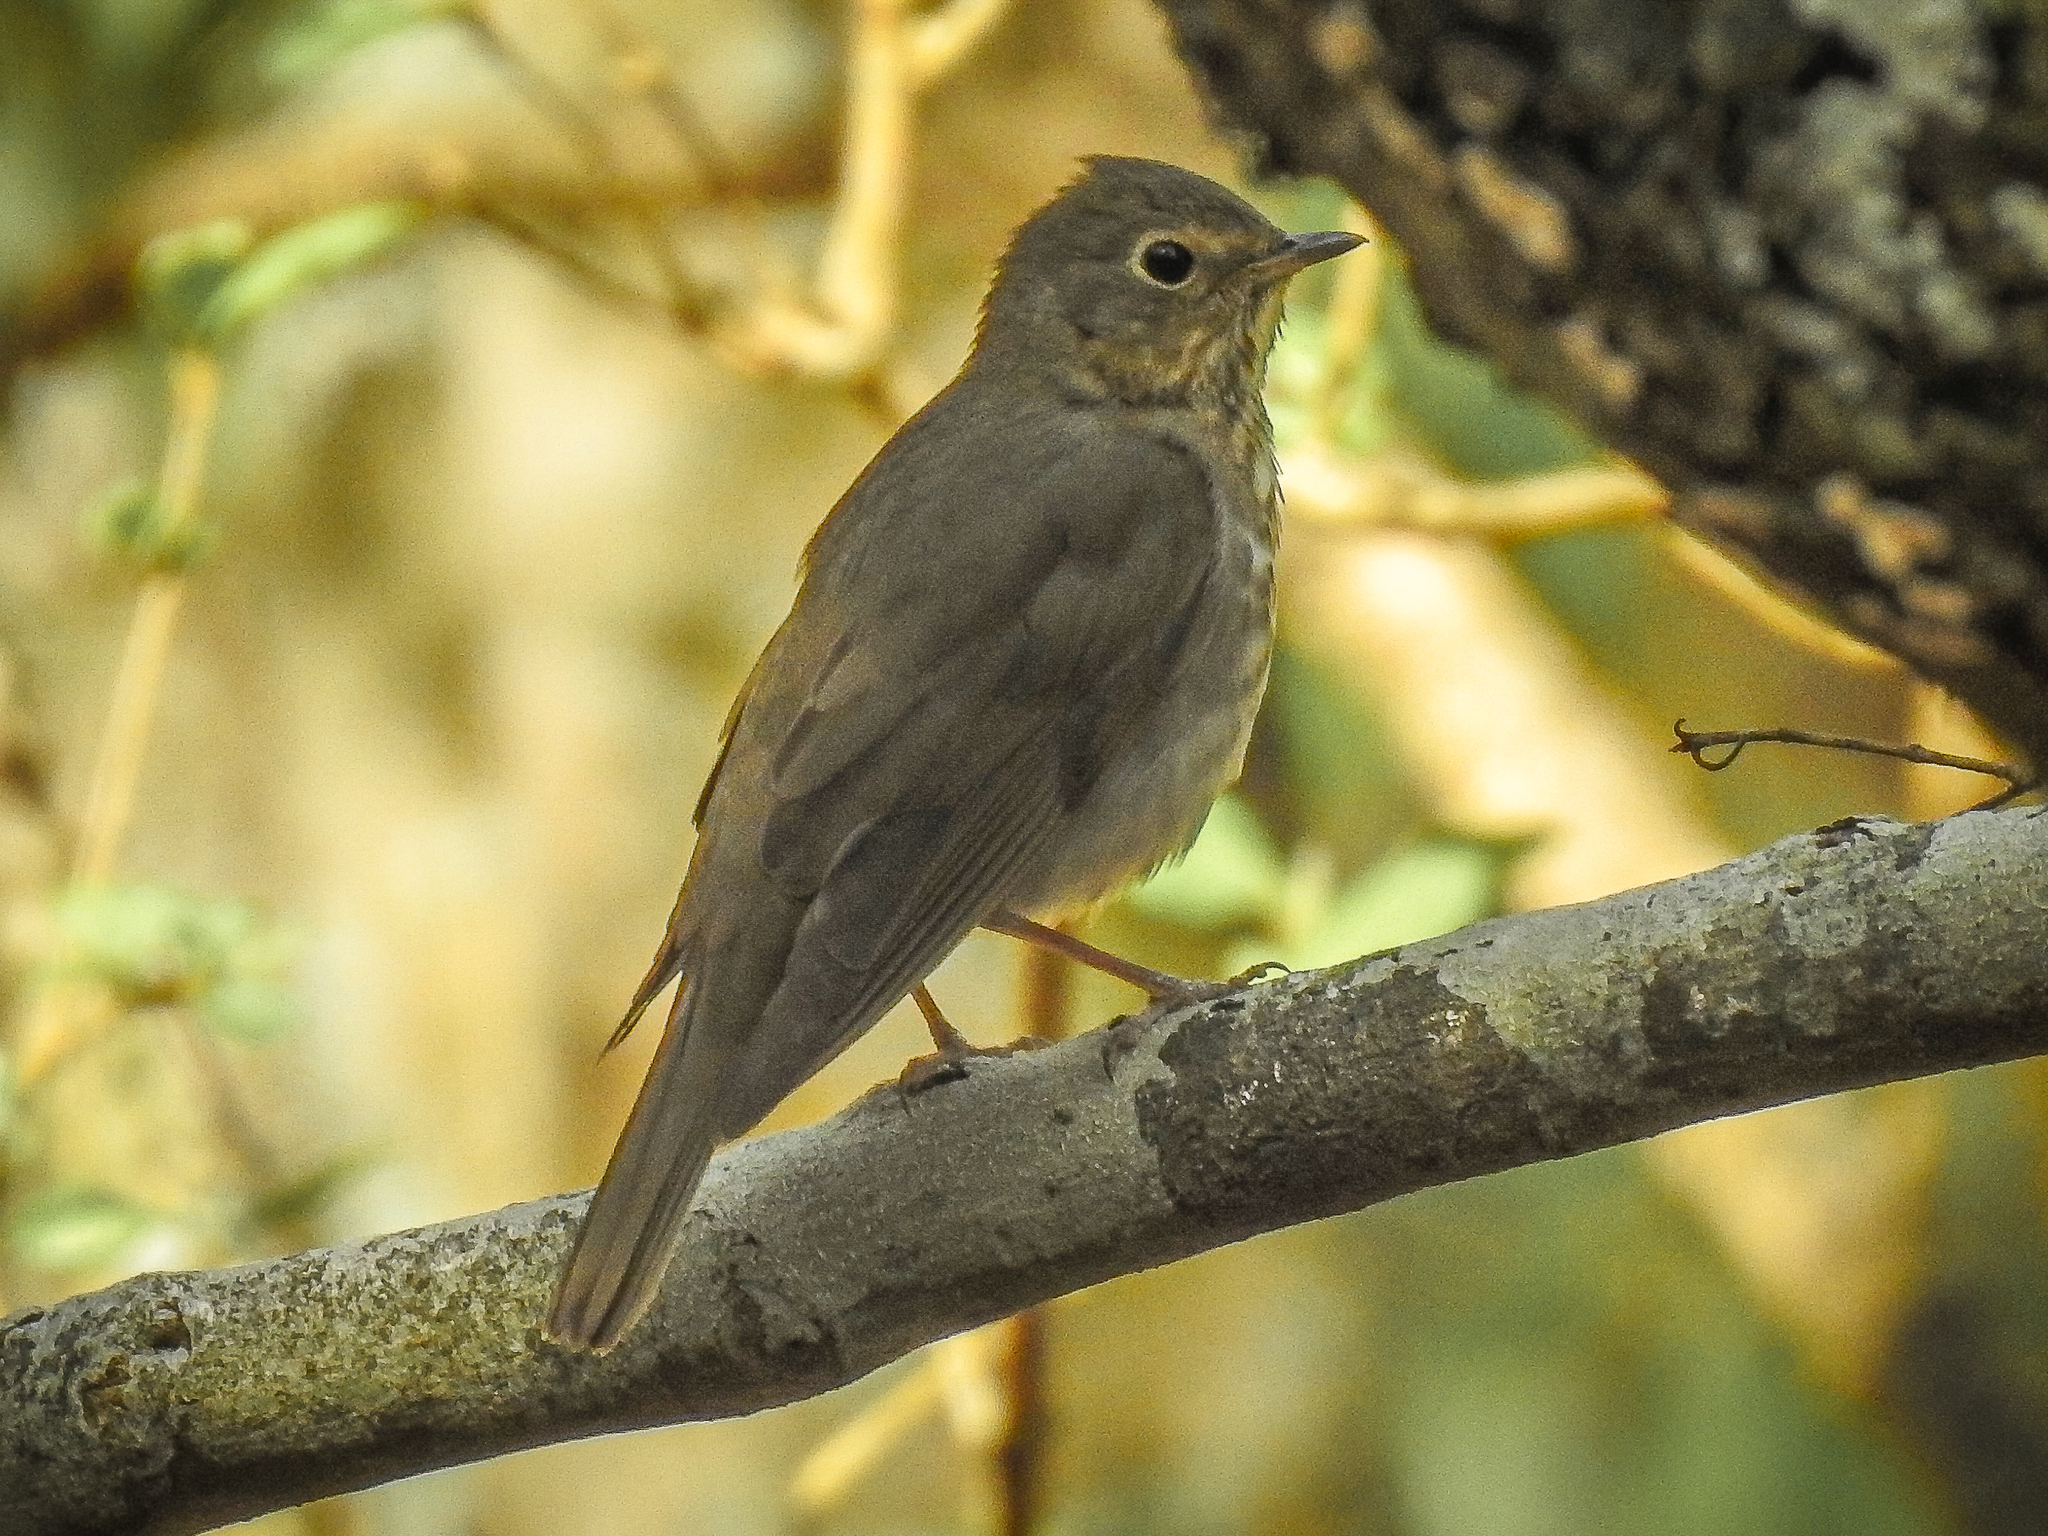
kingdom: Animalia
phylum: Chordata
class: Aves
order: Passeriformes
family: Turdidae
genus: Catharus
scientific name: Catharus ustulatus
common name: Swainson's thrush
